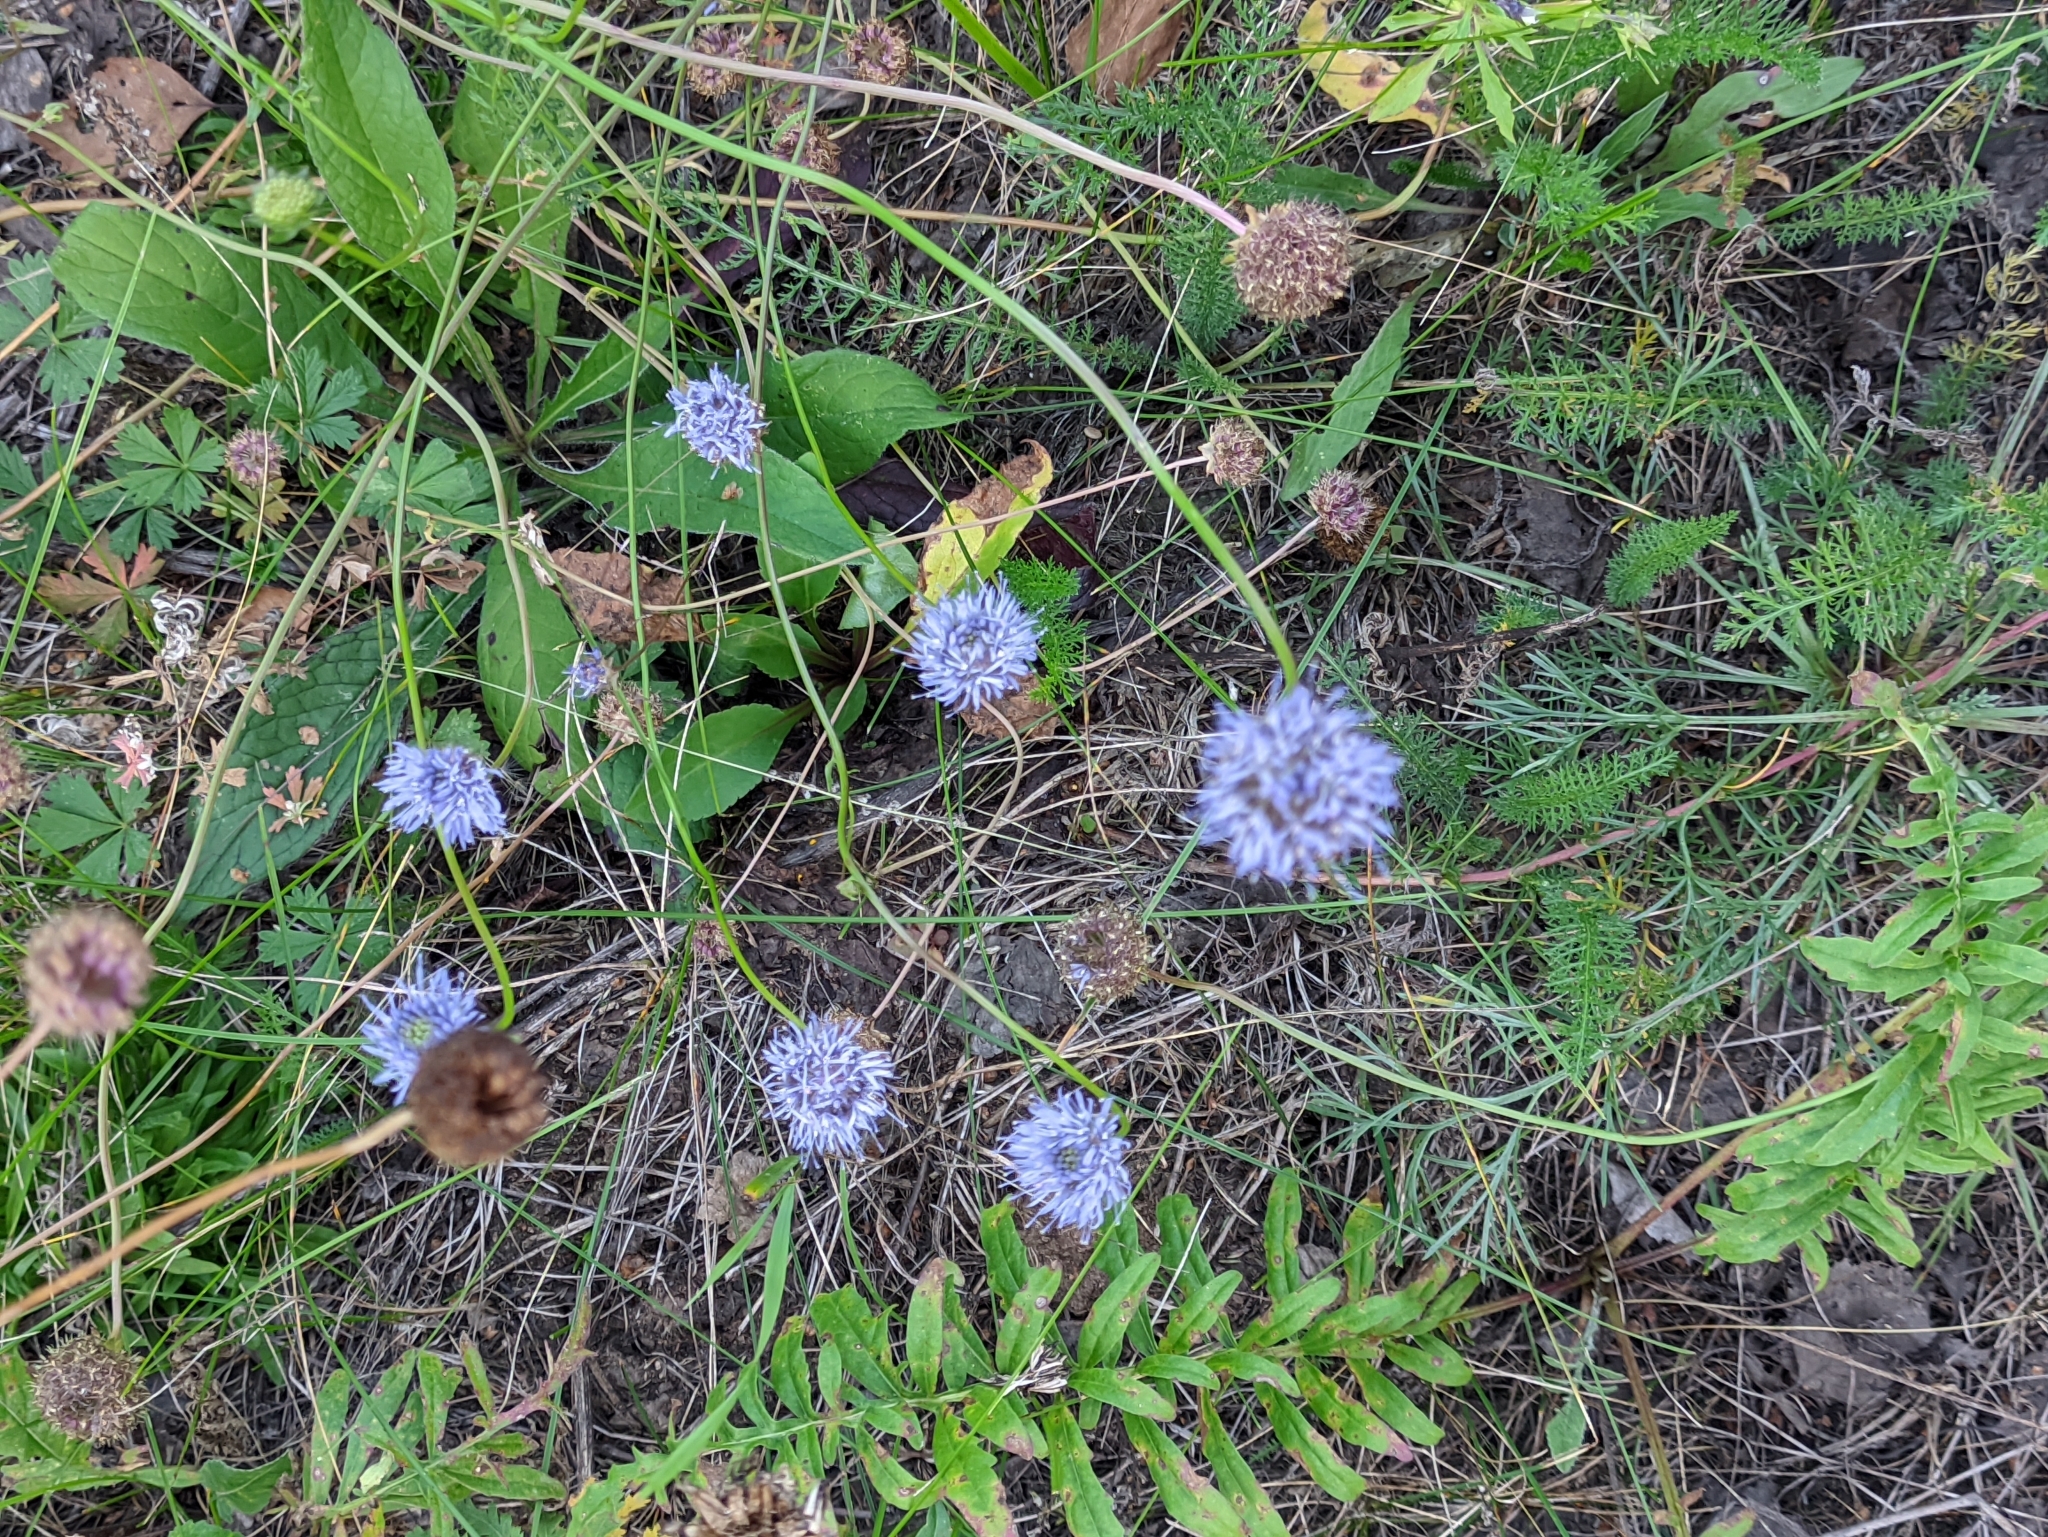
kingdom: Plantae
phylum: Tracheophyta
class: Magnoliopsida
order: Asterales
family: Campanulaceae
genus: Jasione
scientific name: Jasione montana
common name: Sheep's-bit
